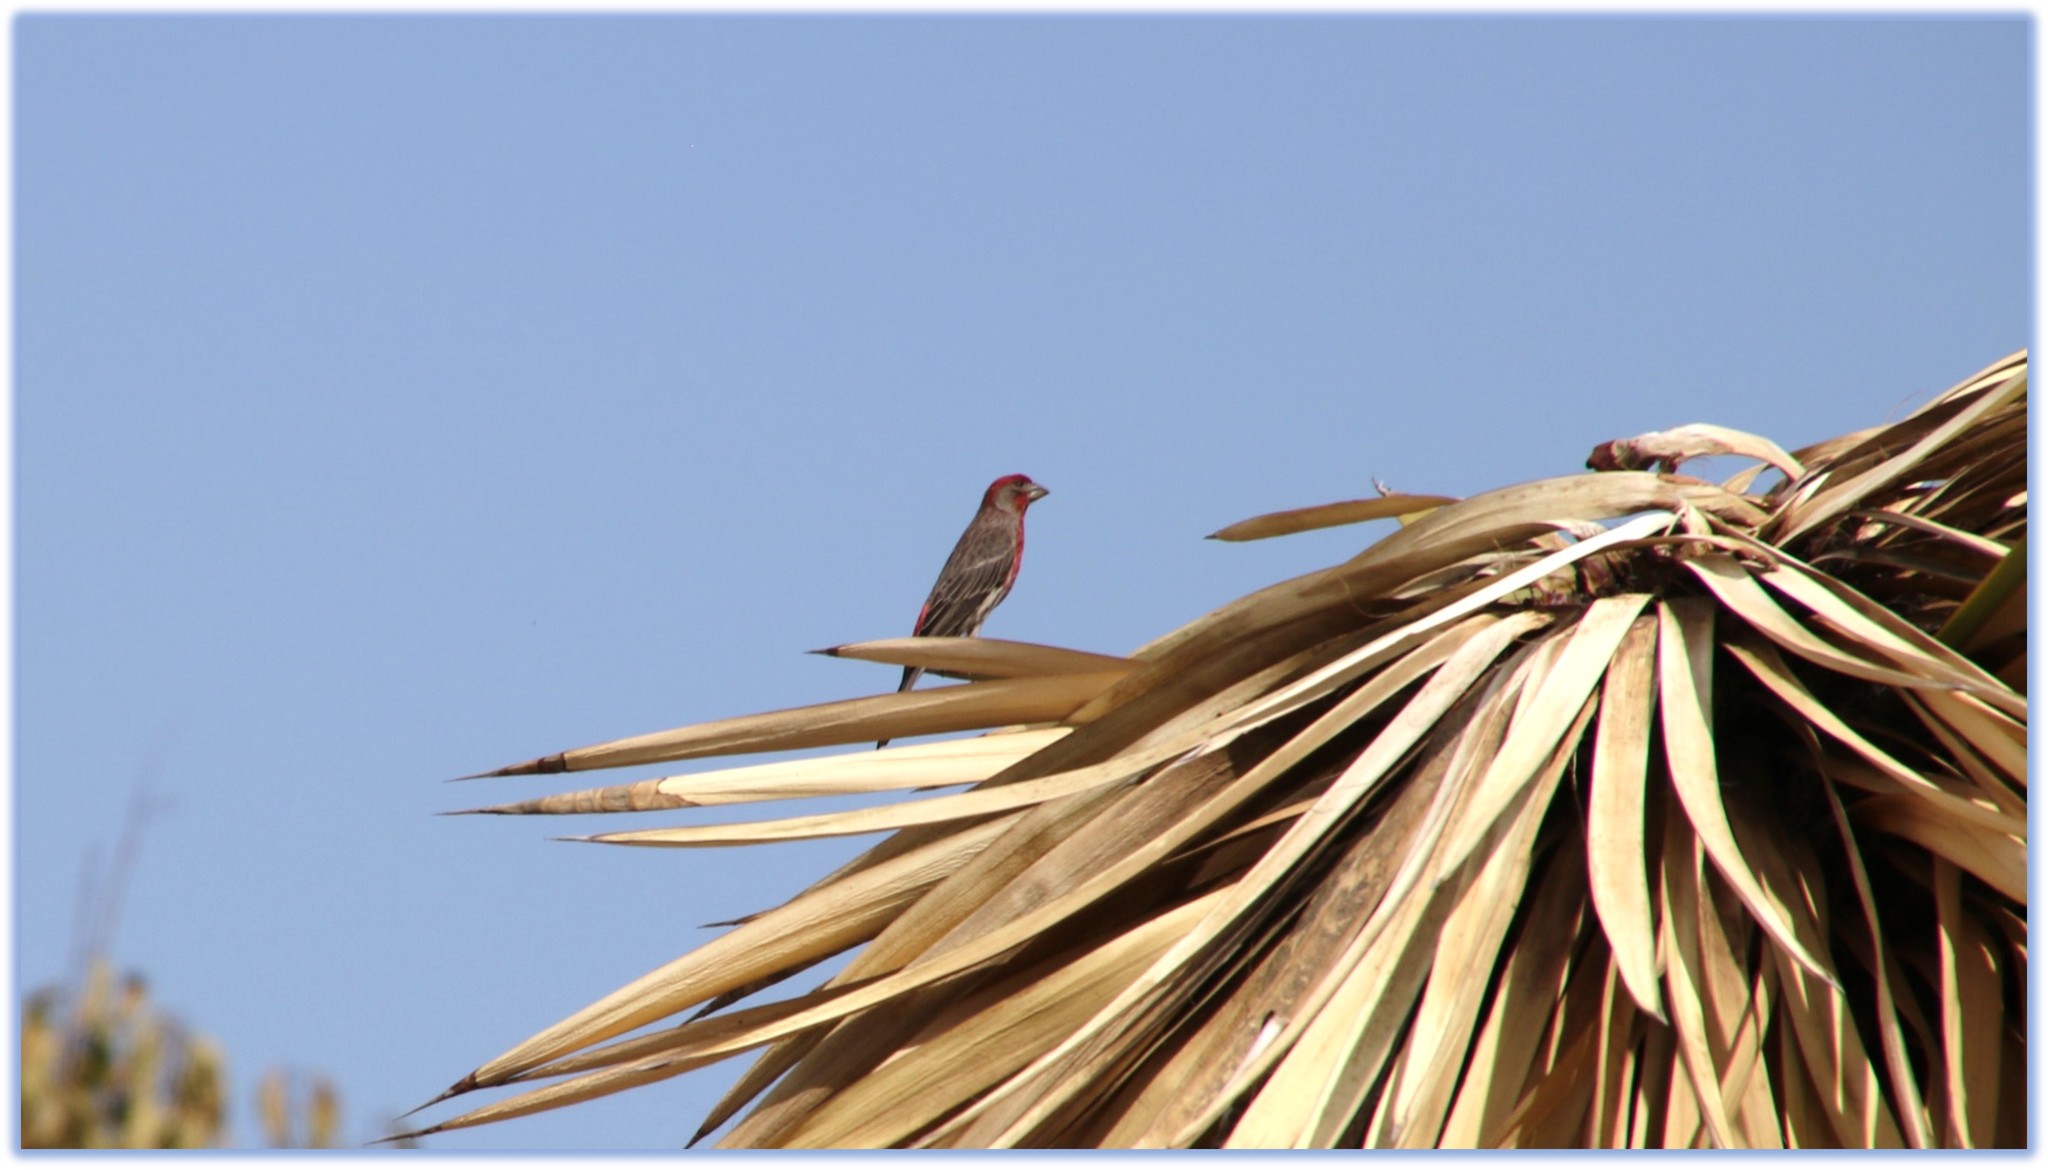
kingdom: Animalia
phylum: Chordata
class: Aves
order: Passeriformes
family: Fringillidae
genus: Haemorhous
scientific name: Haemorhous mexicanus
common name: House finch
